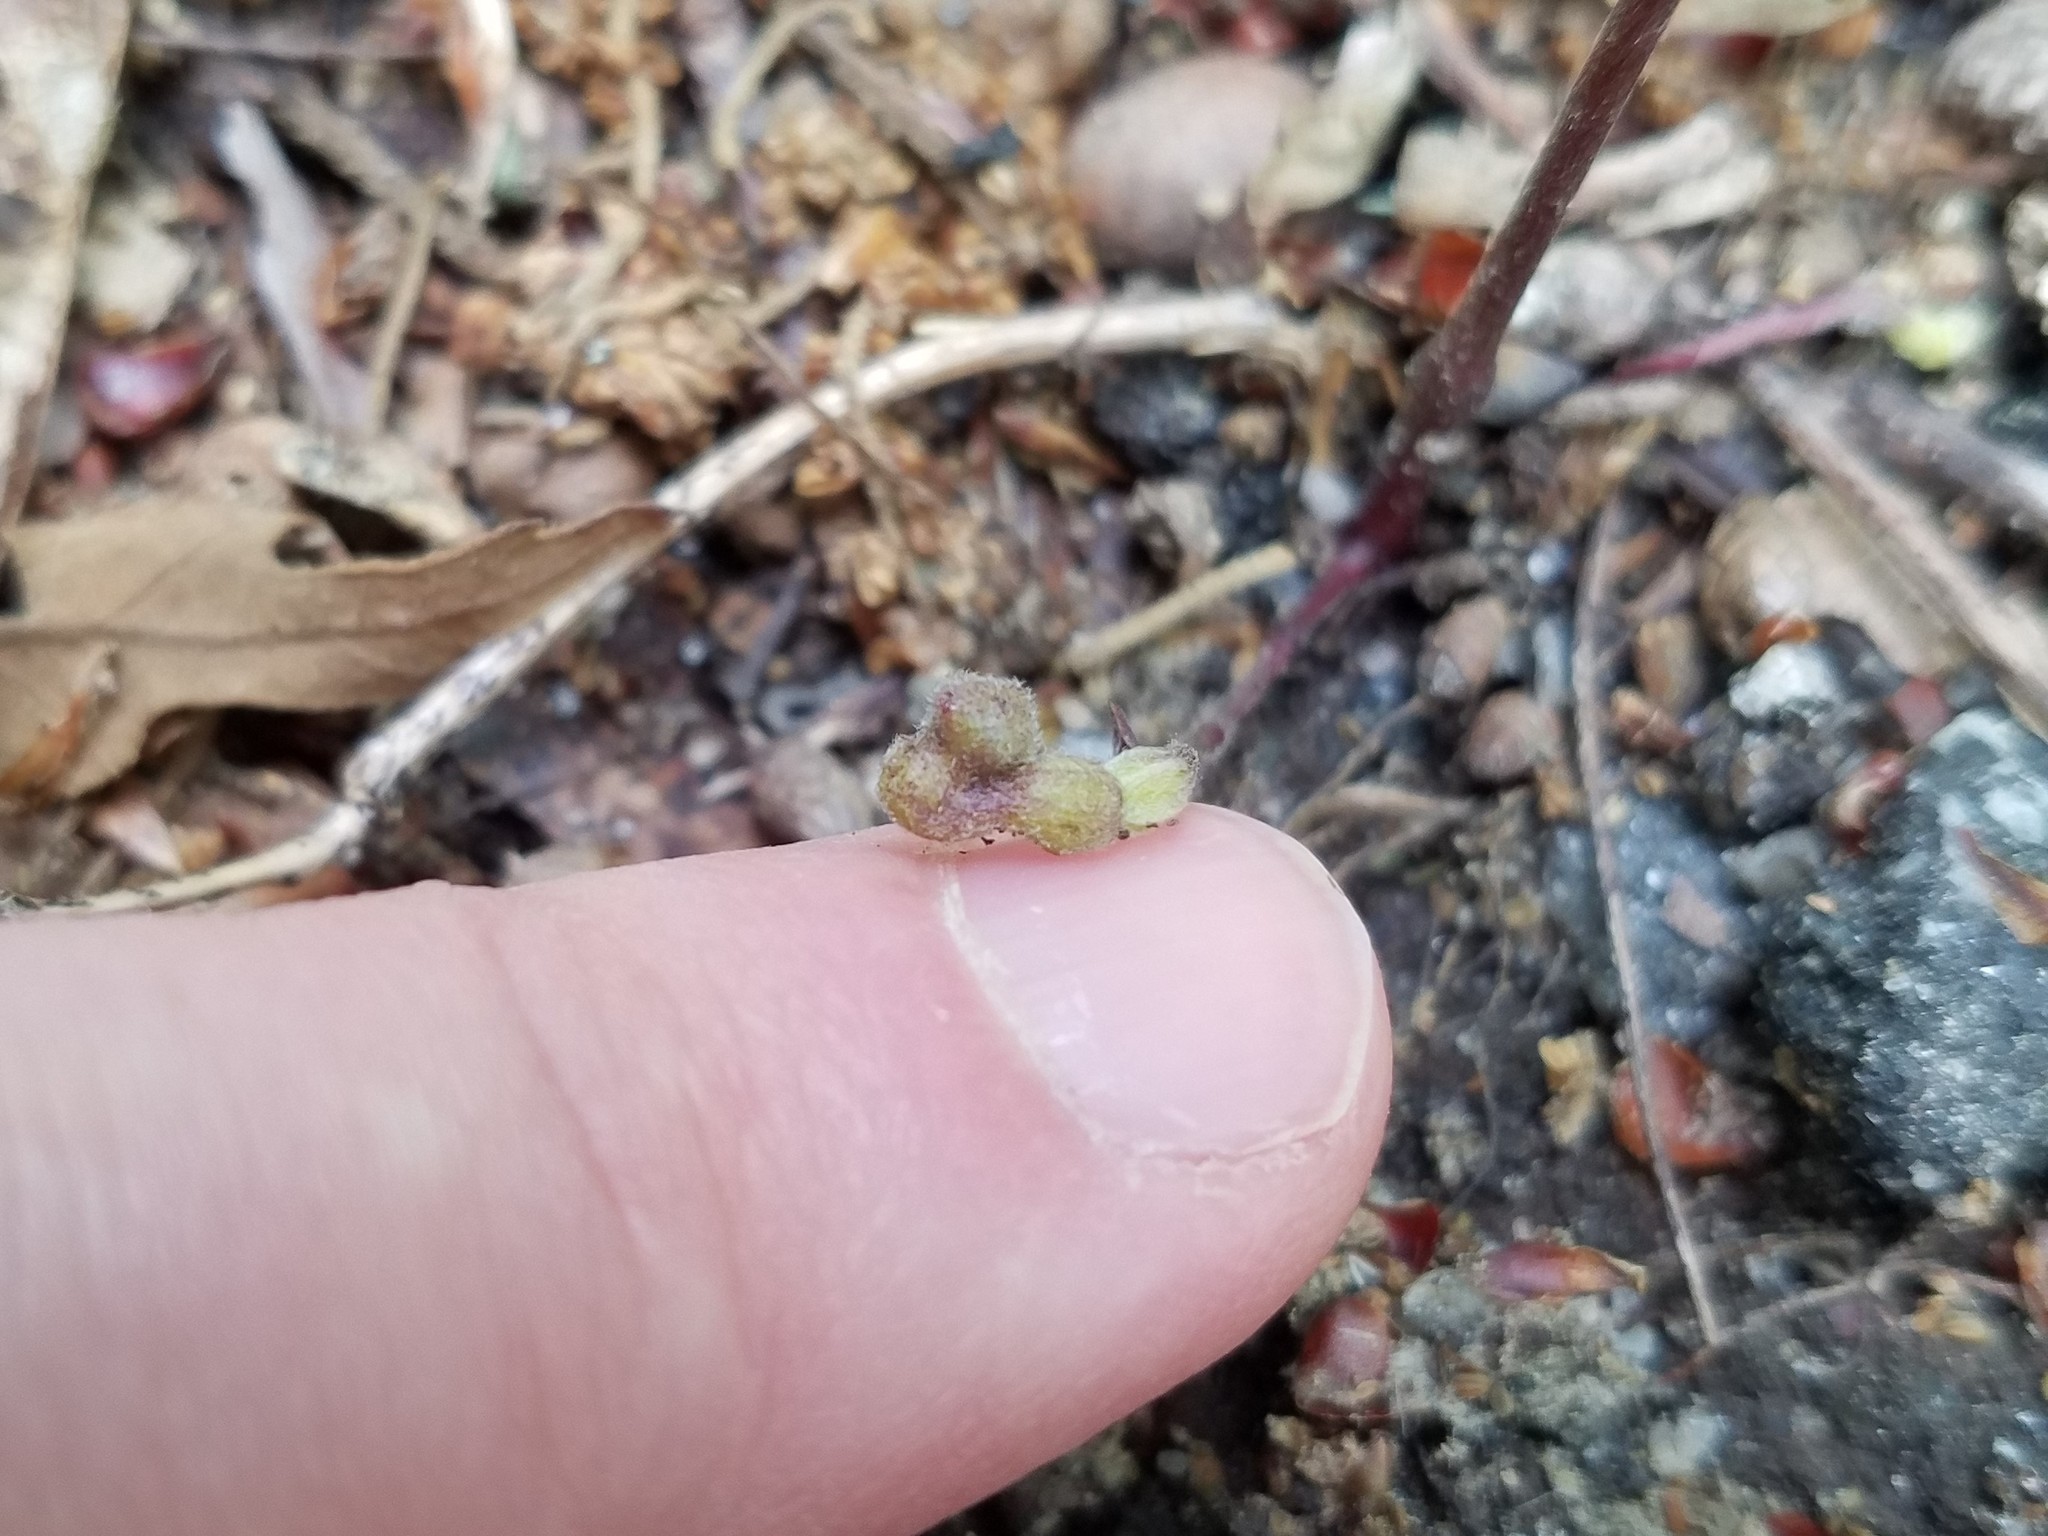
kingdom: Plantae
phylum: Tracheophyta
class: Magnoliopsida
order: Piperales
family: Aristolochiaceae
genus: Endodeca
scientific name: Endodeca serpentaria
